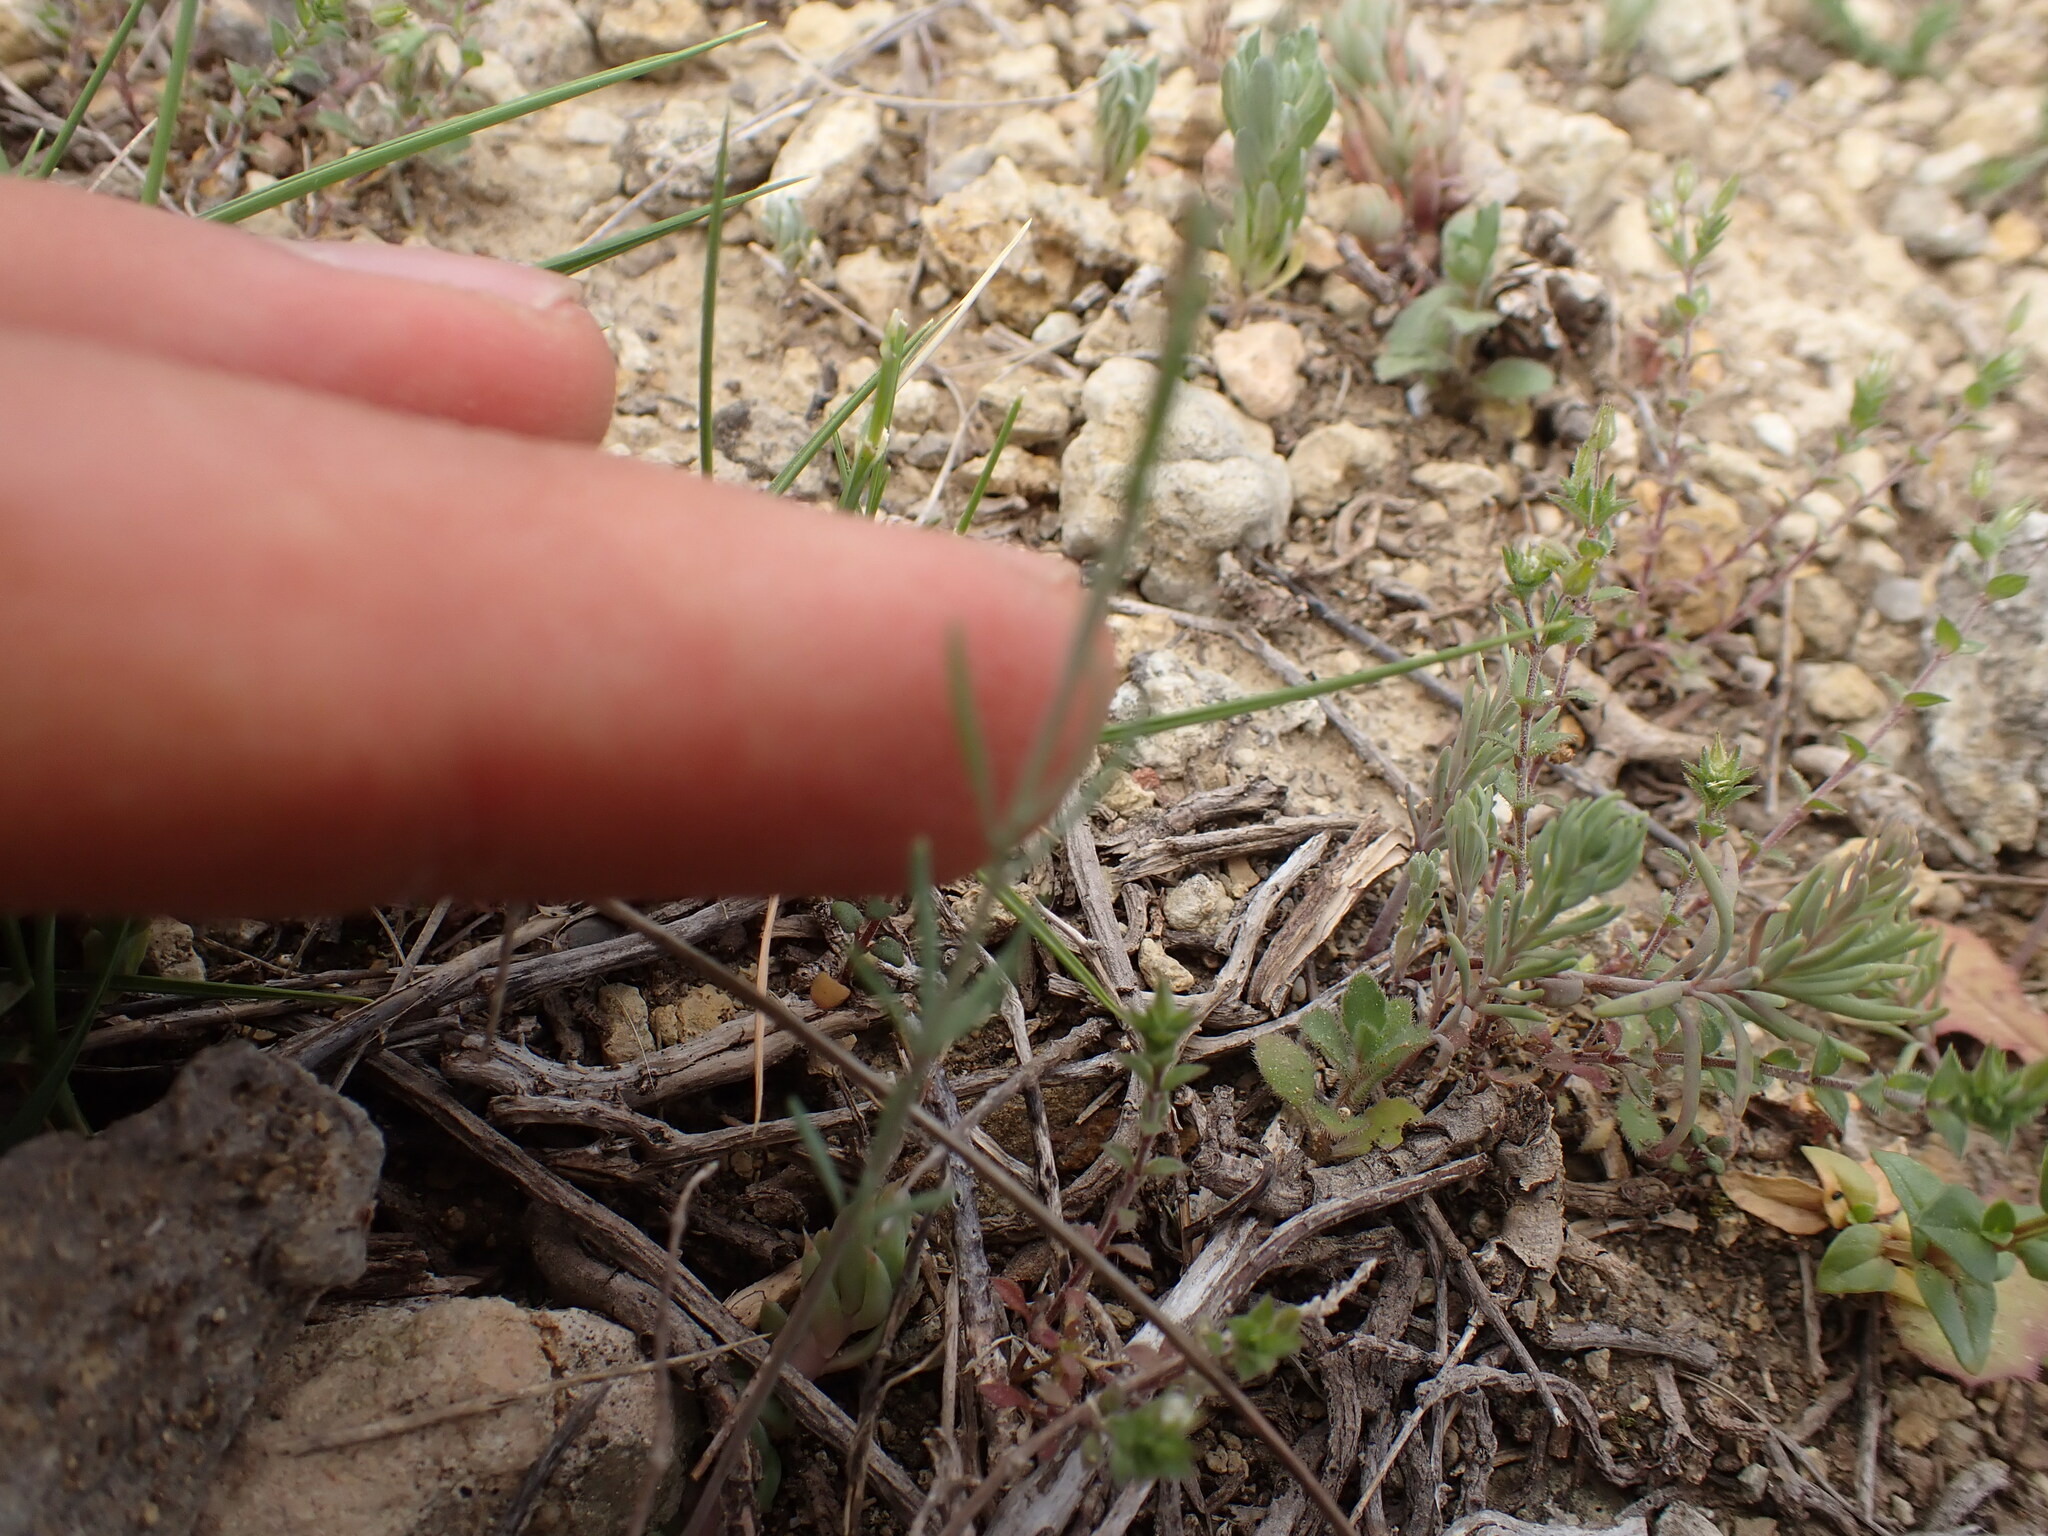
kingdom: Plantae
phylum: Tracheophyta
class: Magnoliopsida
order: Lamiales
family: Plantaginaceae
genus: Linaria
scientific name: Linaria simplex
